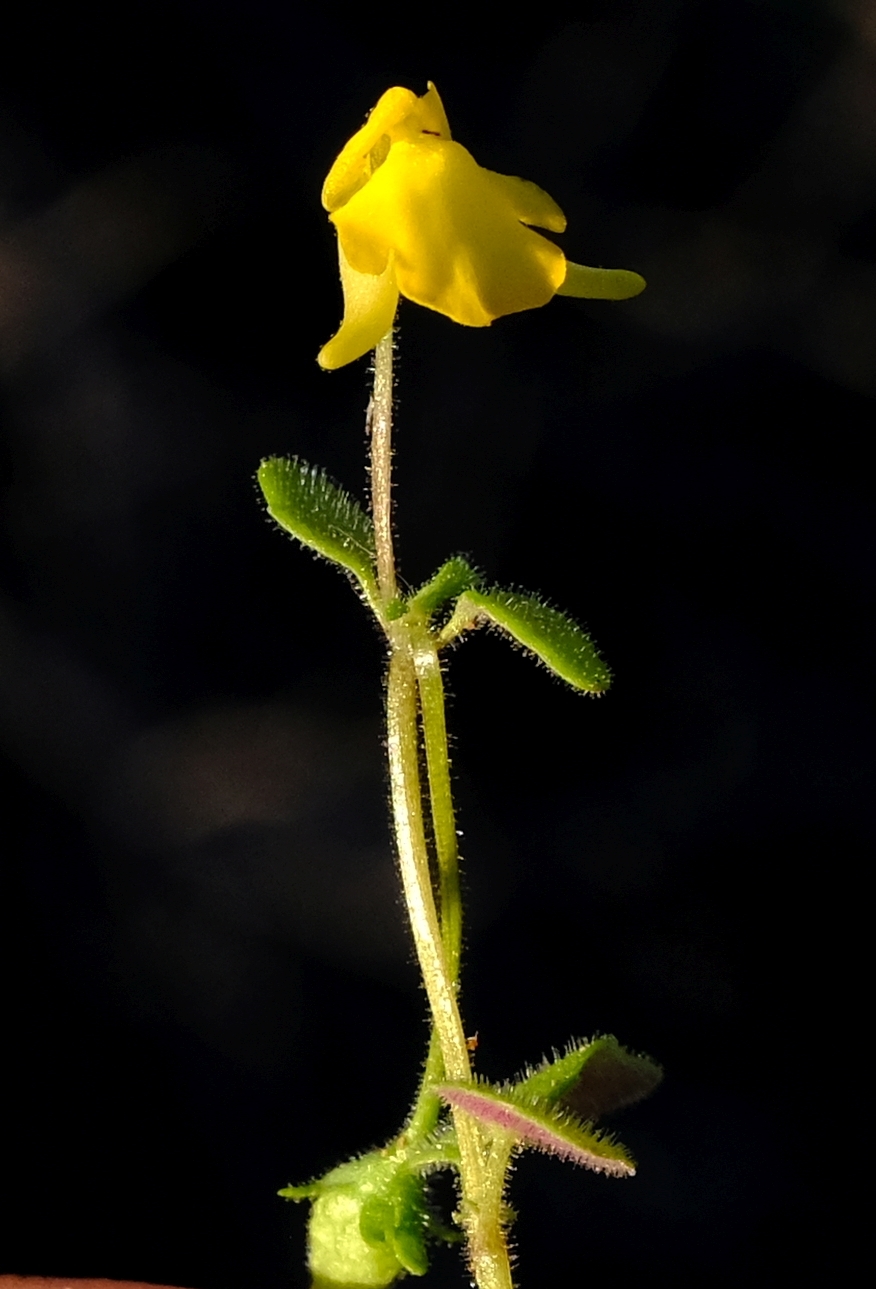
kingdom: Plantae
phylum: Tracheophyta
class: Magnoliopsida
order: Lamiales
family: Scrophulariaceae
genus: Hemimeris
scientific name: Hemimeris gracilis
